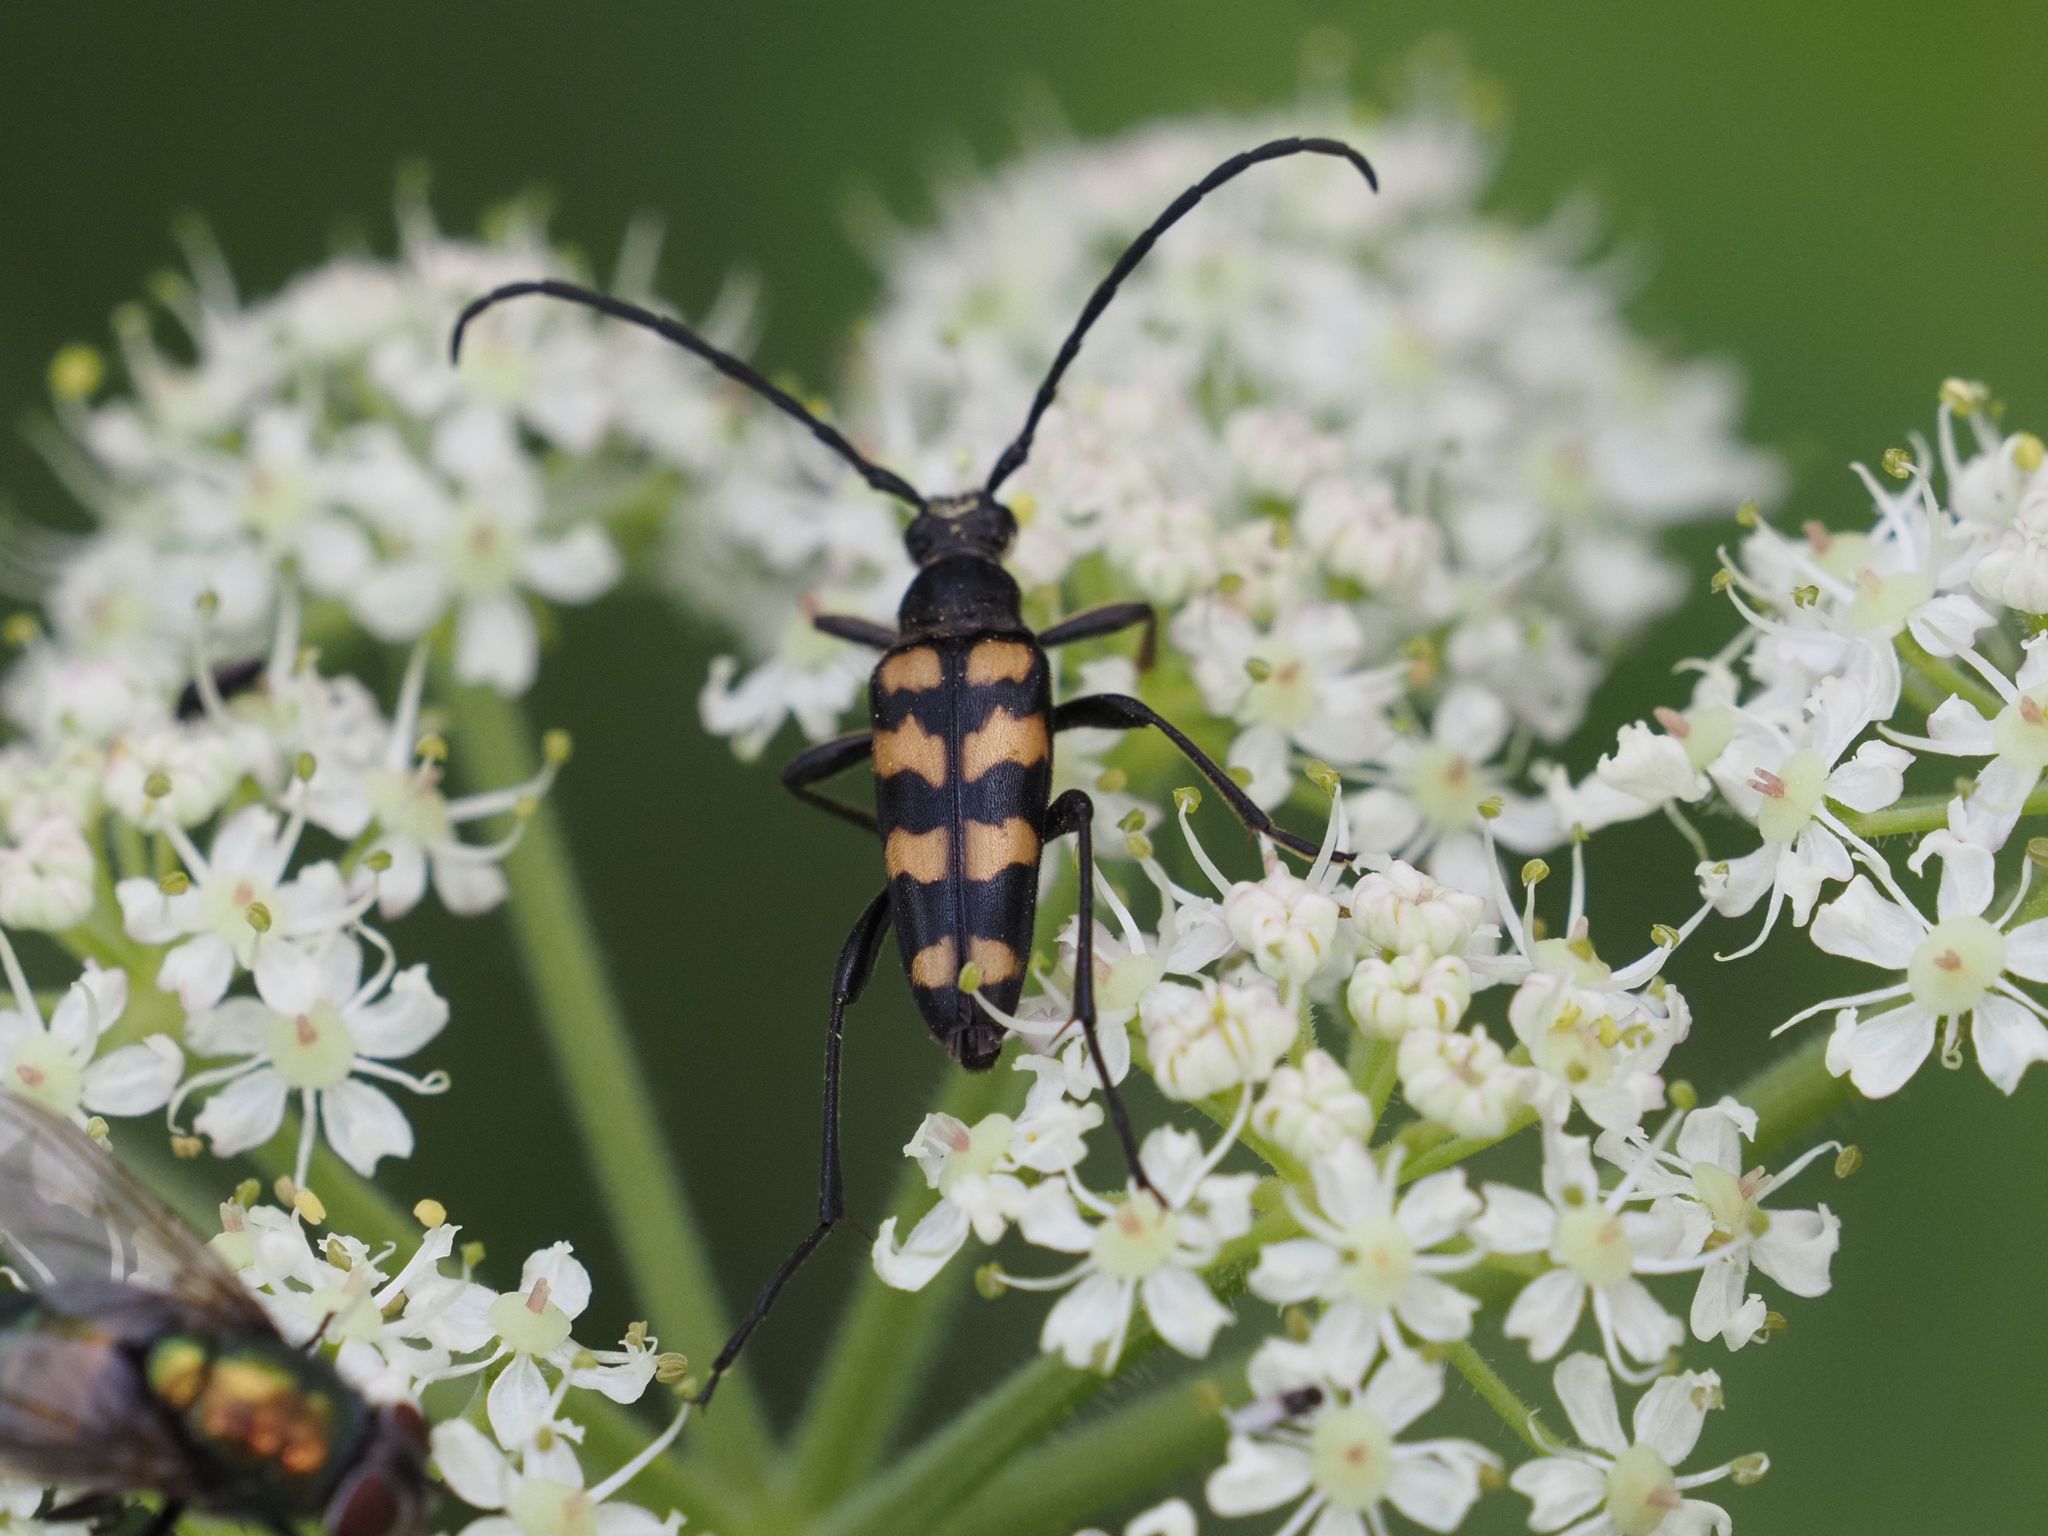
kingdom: Animalia
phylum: Arthropoda
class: Insecta
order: Coleoptera
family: Cerambycidae
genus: Leptura
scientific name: Leptura quadrifasciata
